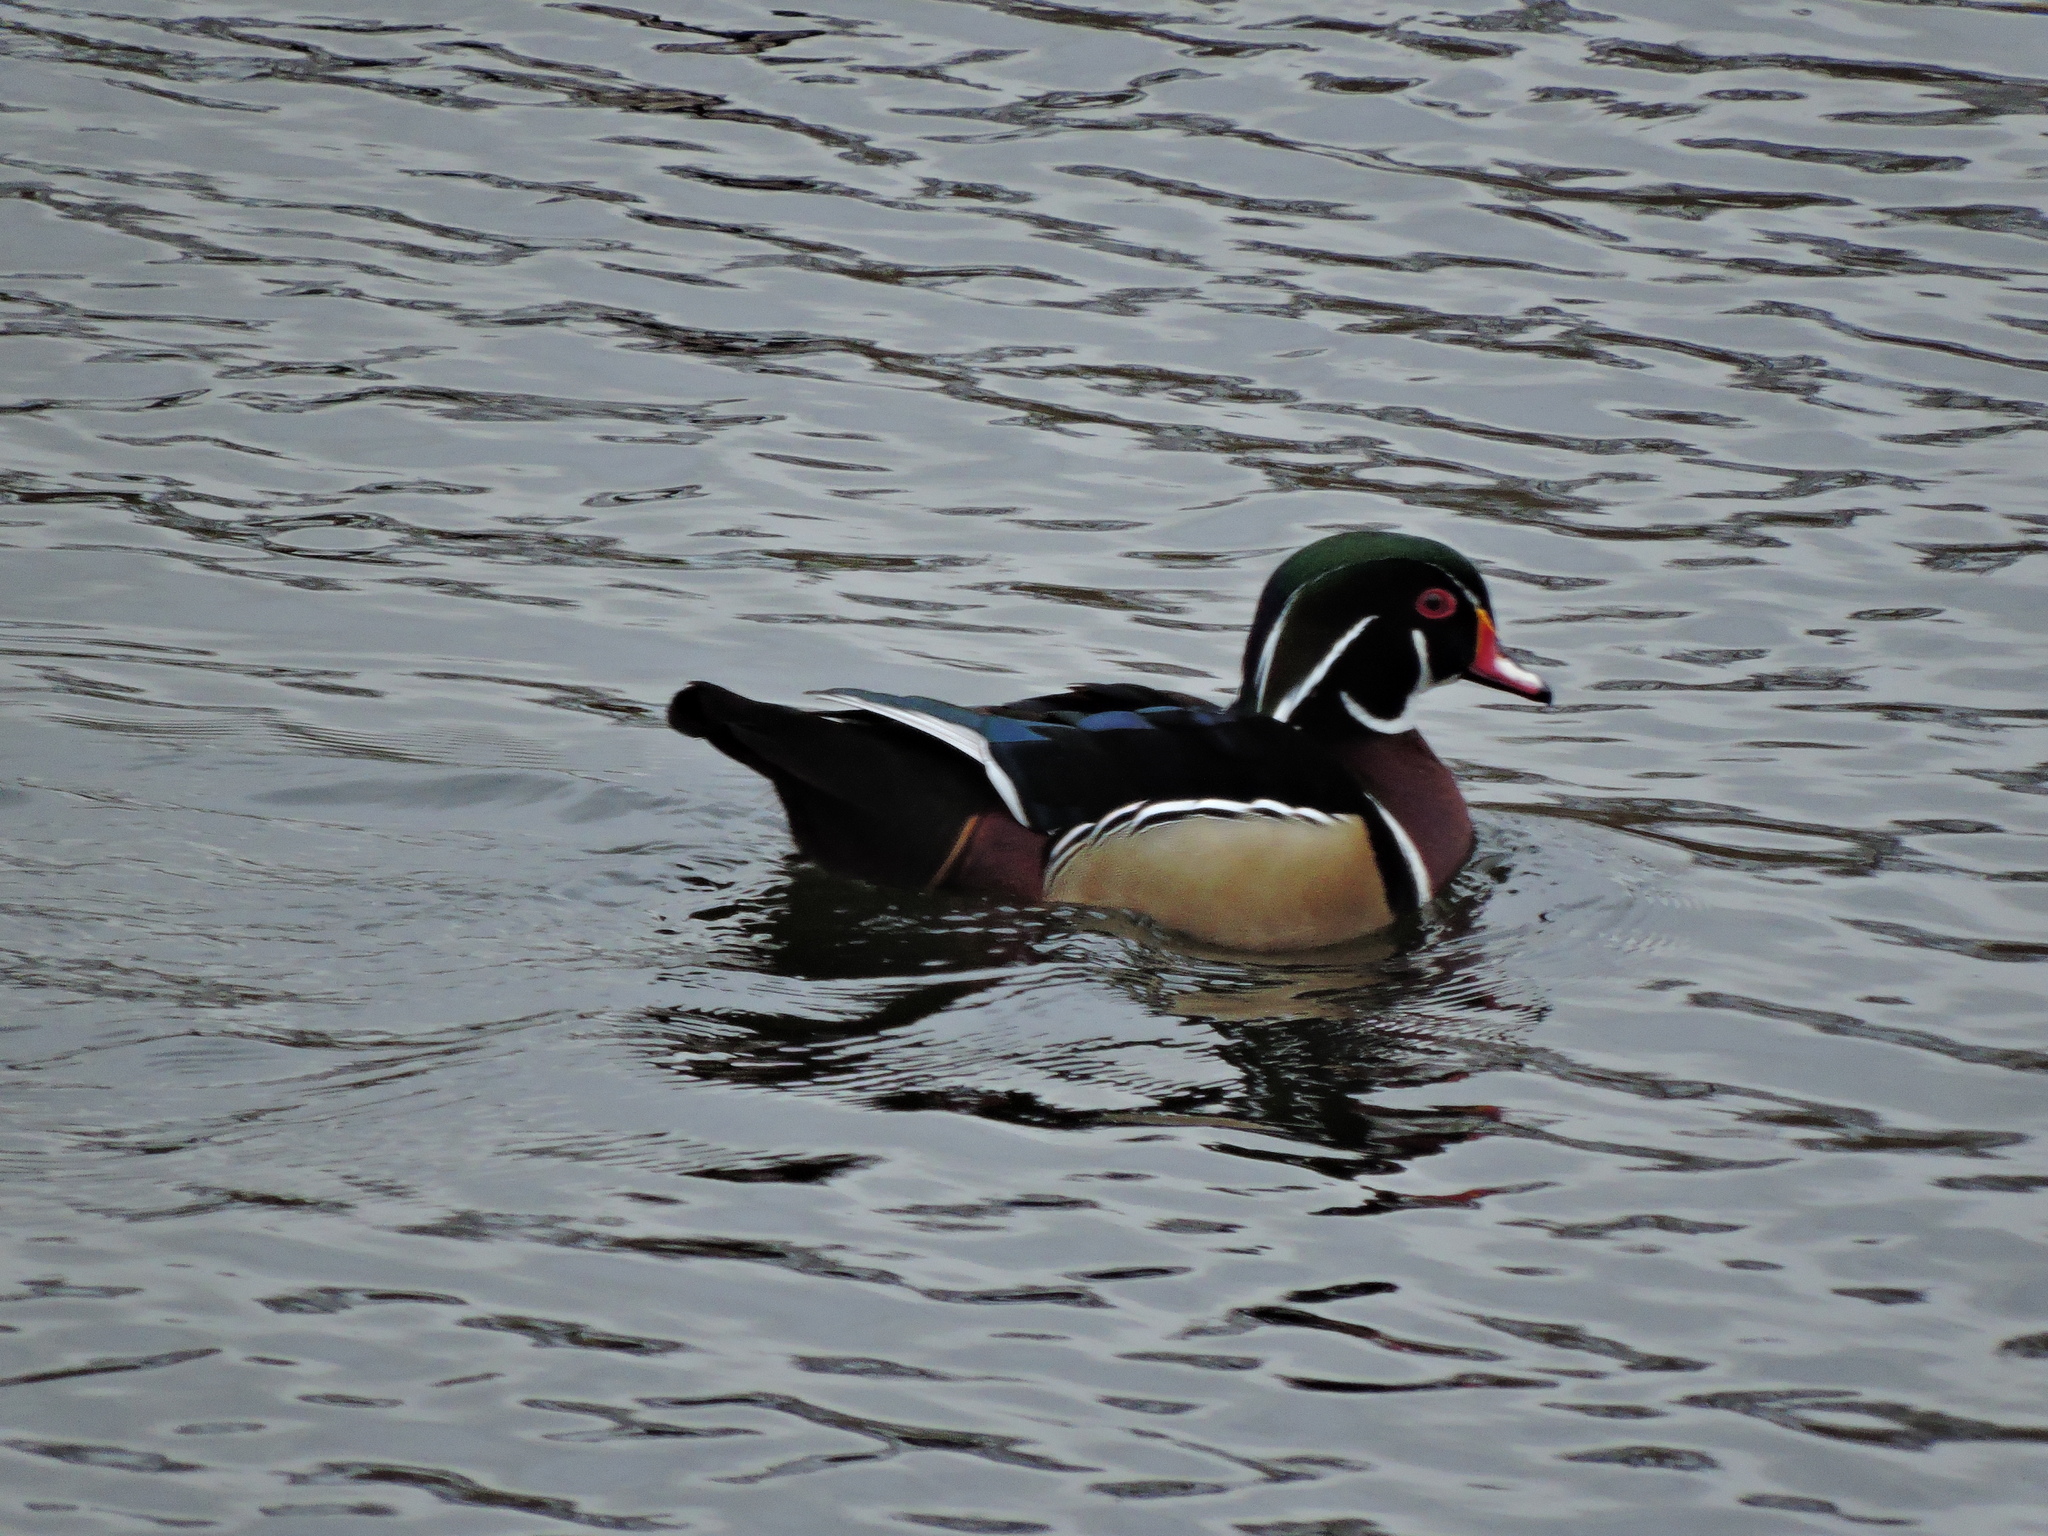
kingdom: Animalia
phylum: Chordata
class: Aves
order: Anseriformes
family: Anatidae
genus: Aix
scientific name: Aix sponsa
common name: Wood duck
